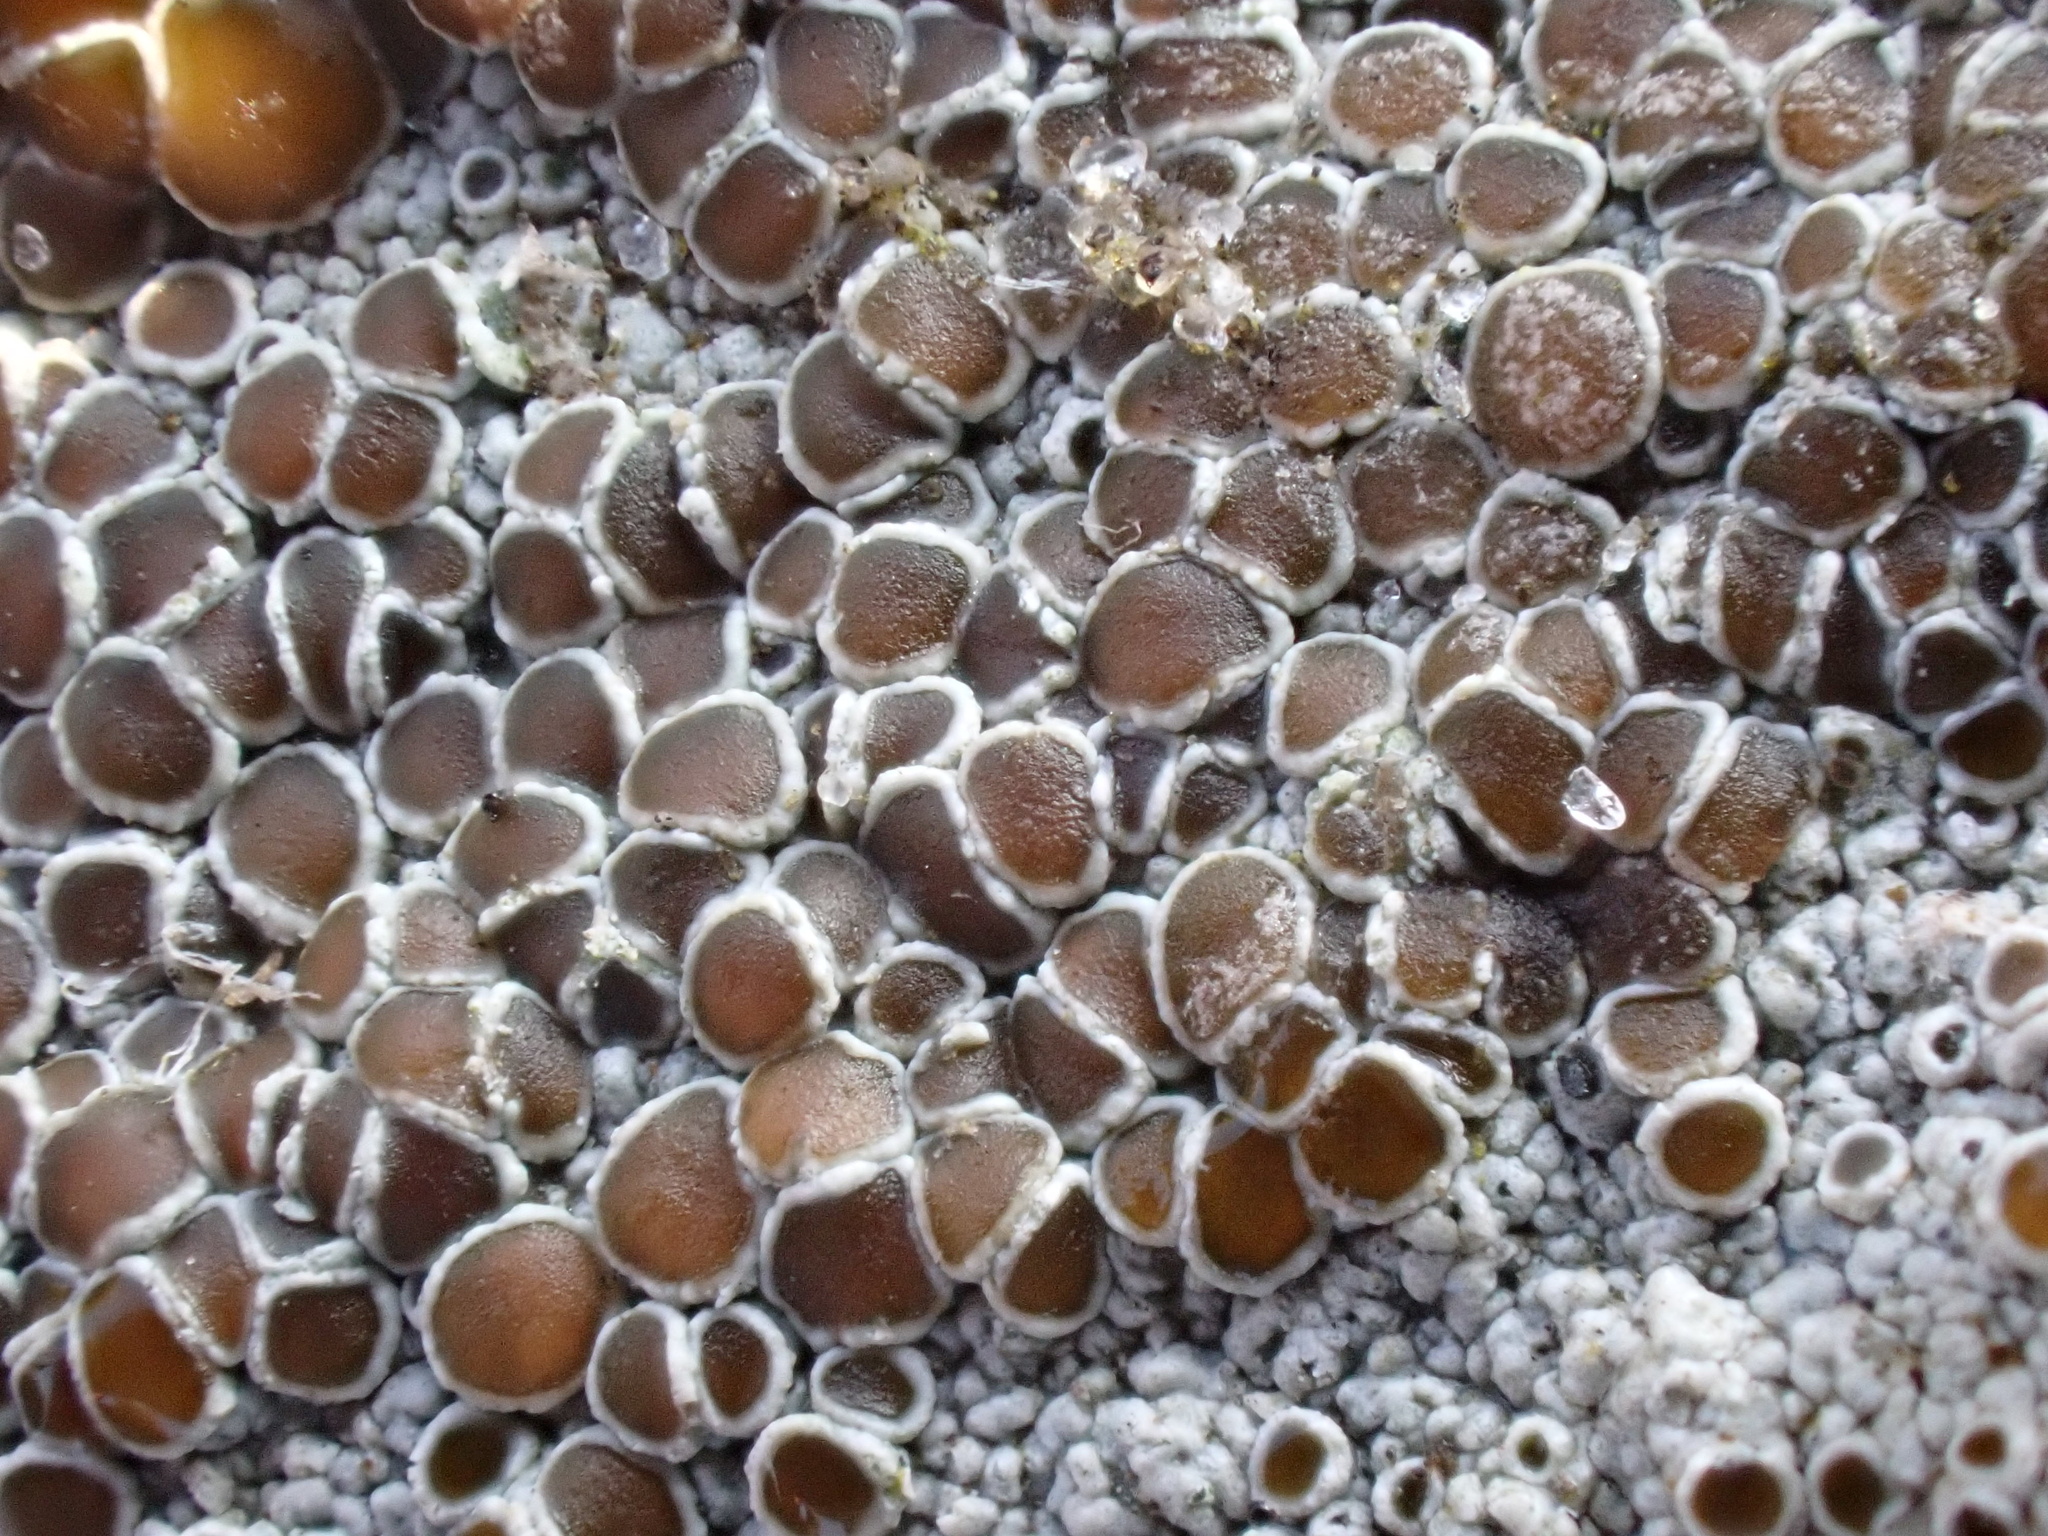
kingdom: Fungi
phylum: Ascomycota
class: Lecanoromycetes
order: Lecanorales
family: Lecanoraceae
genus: Lecanora
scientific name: Lecanora campestris
